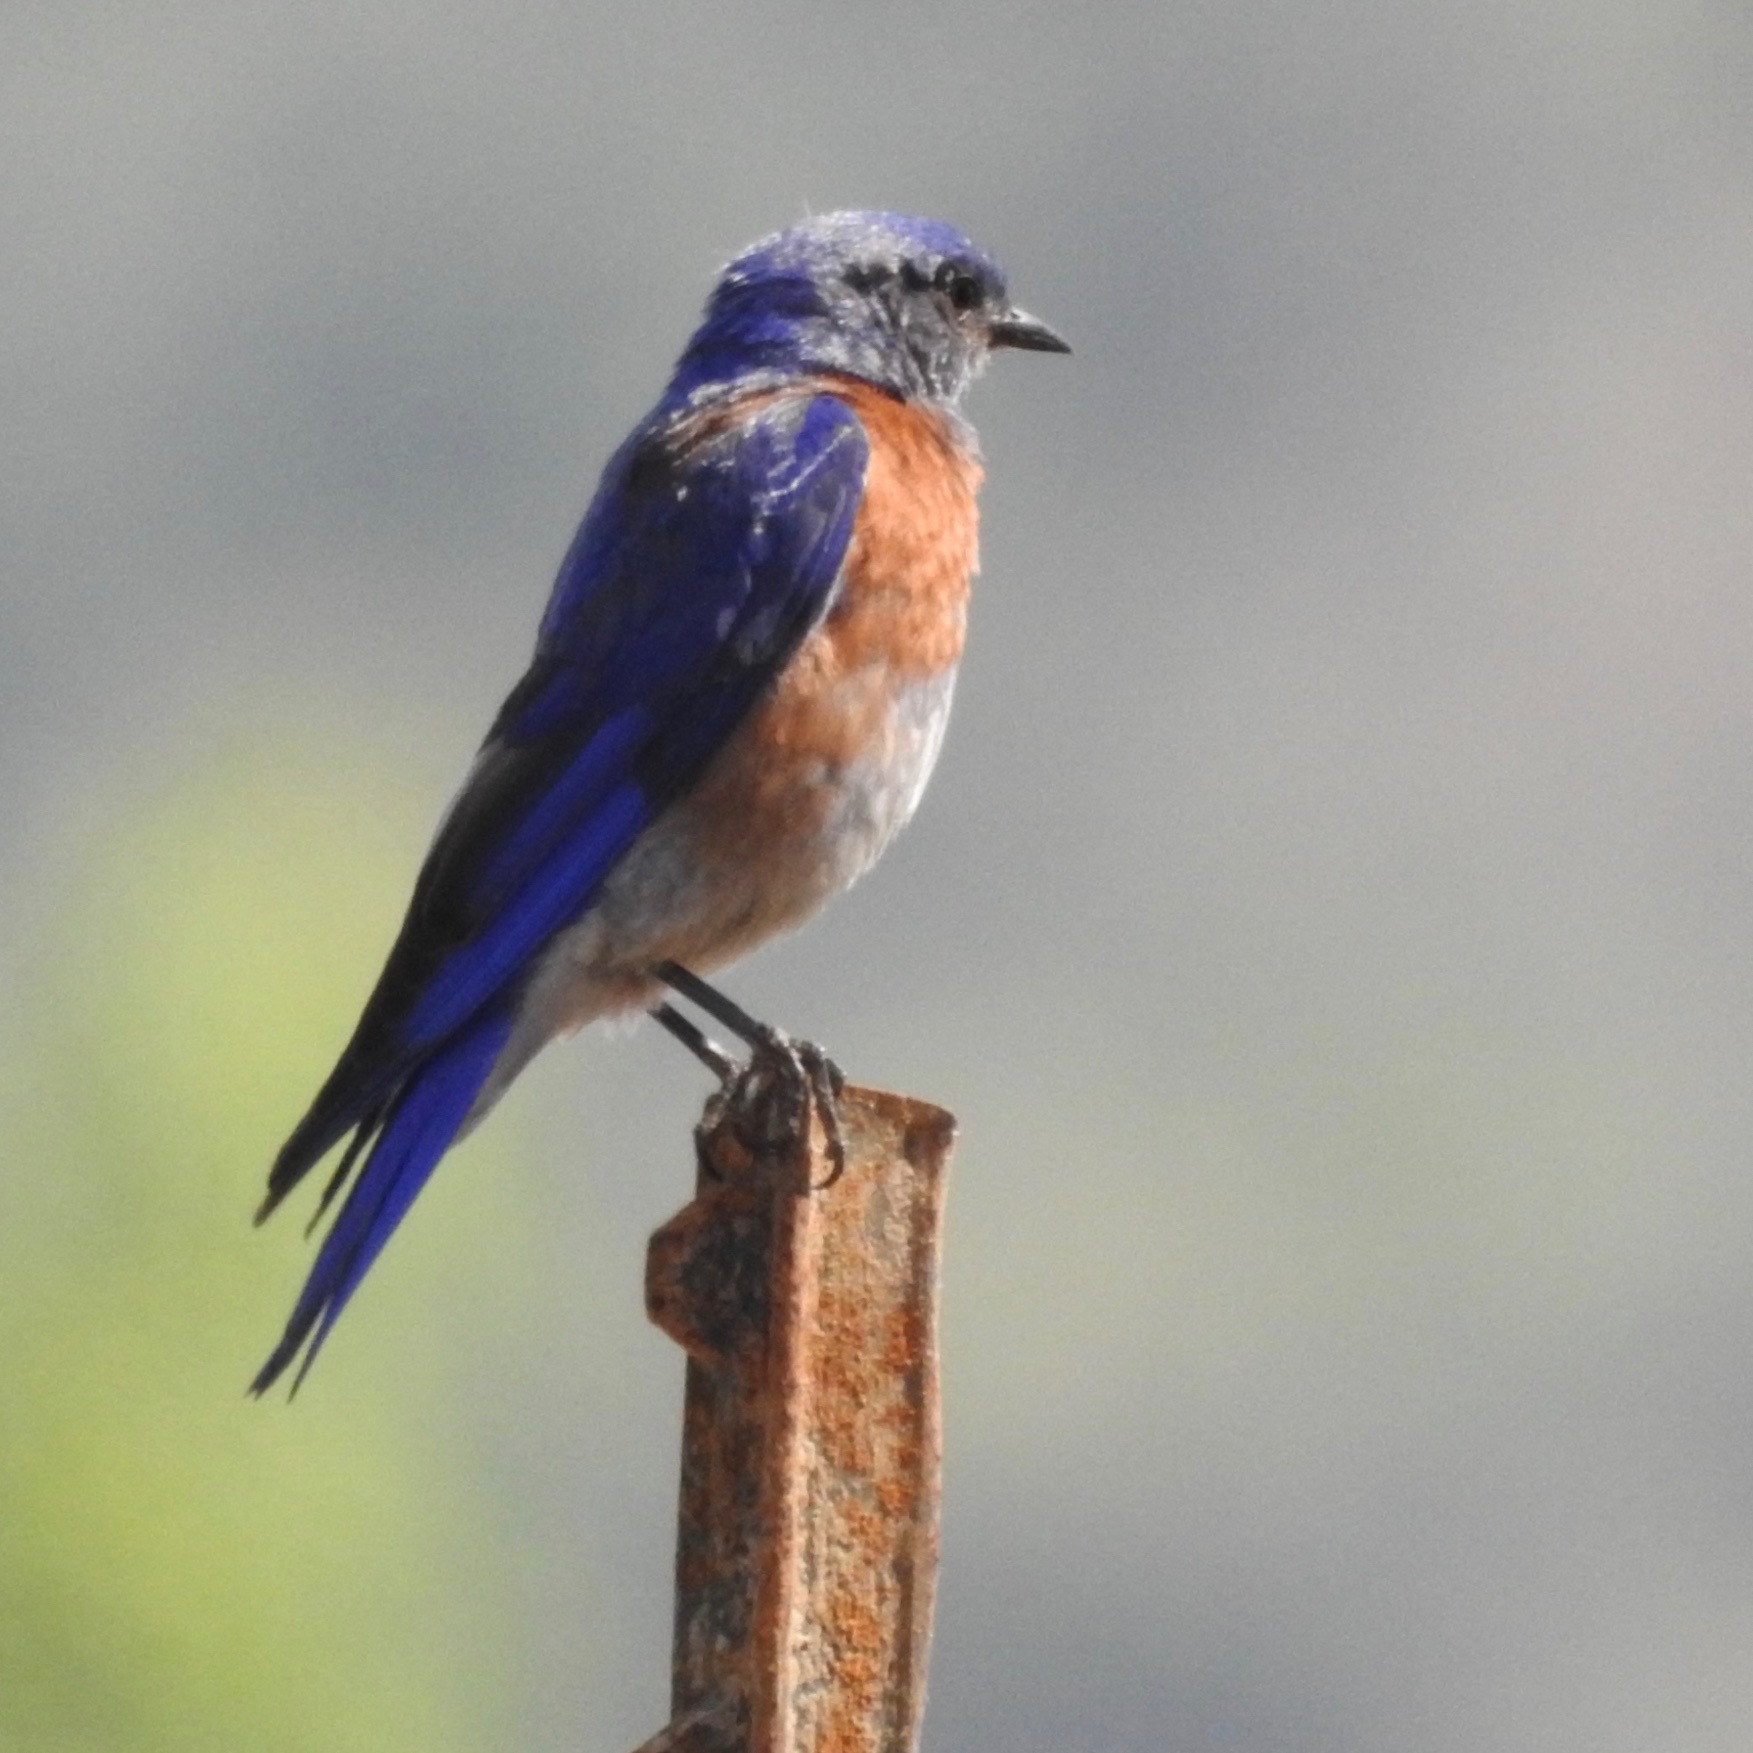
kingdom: Animalia
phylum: Chordata
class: Aves
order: Passeriformes
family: Turdidae
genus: Sialia
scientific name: Sialia mexicana
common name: Western bluebird
